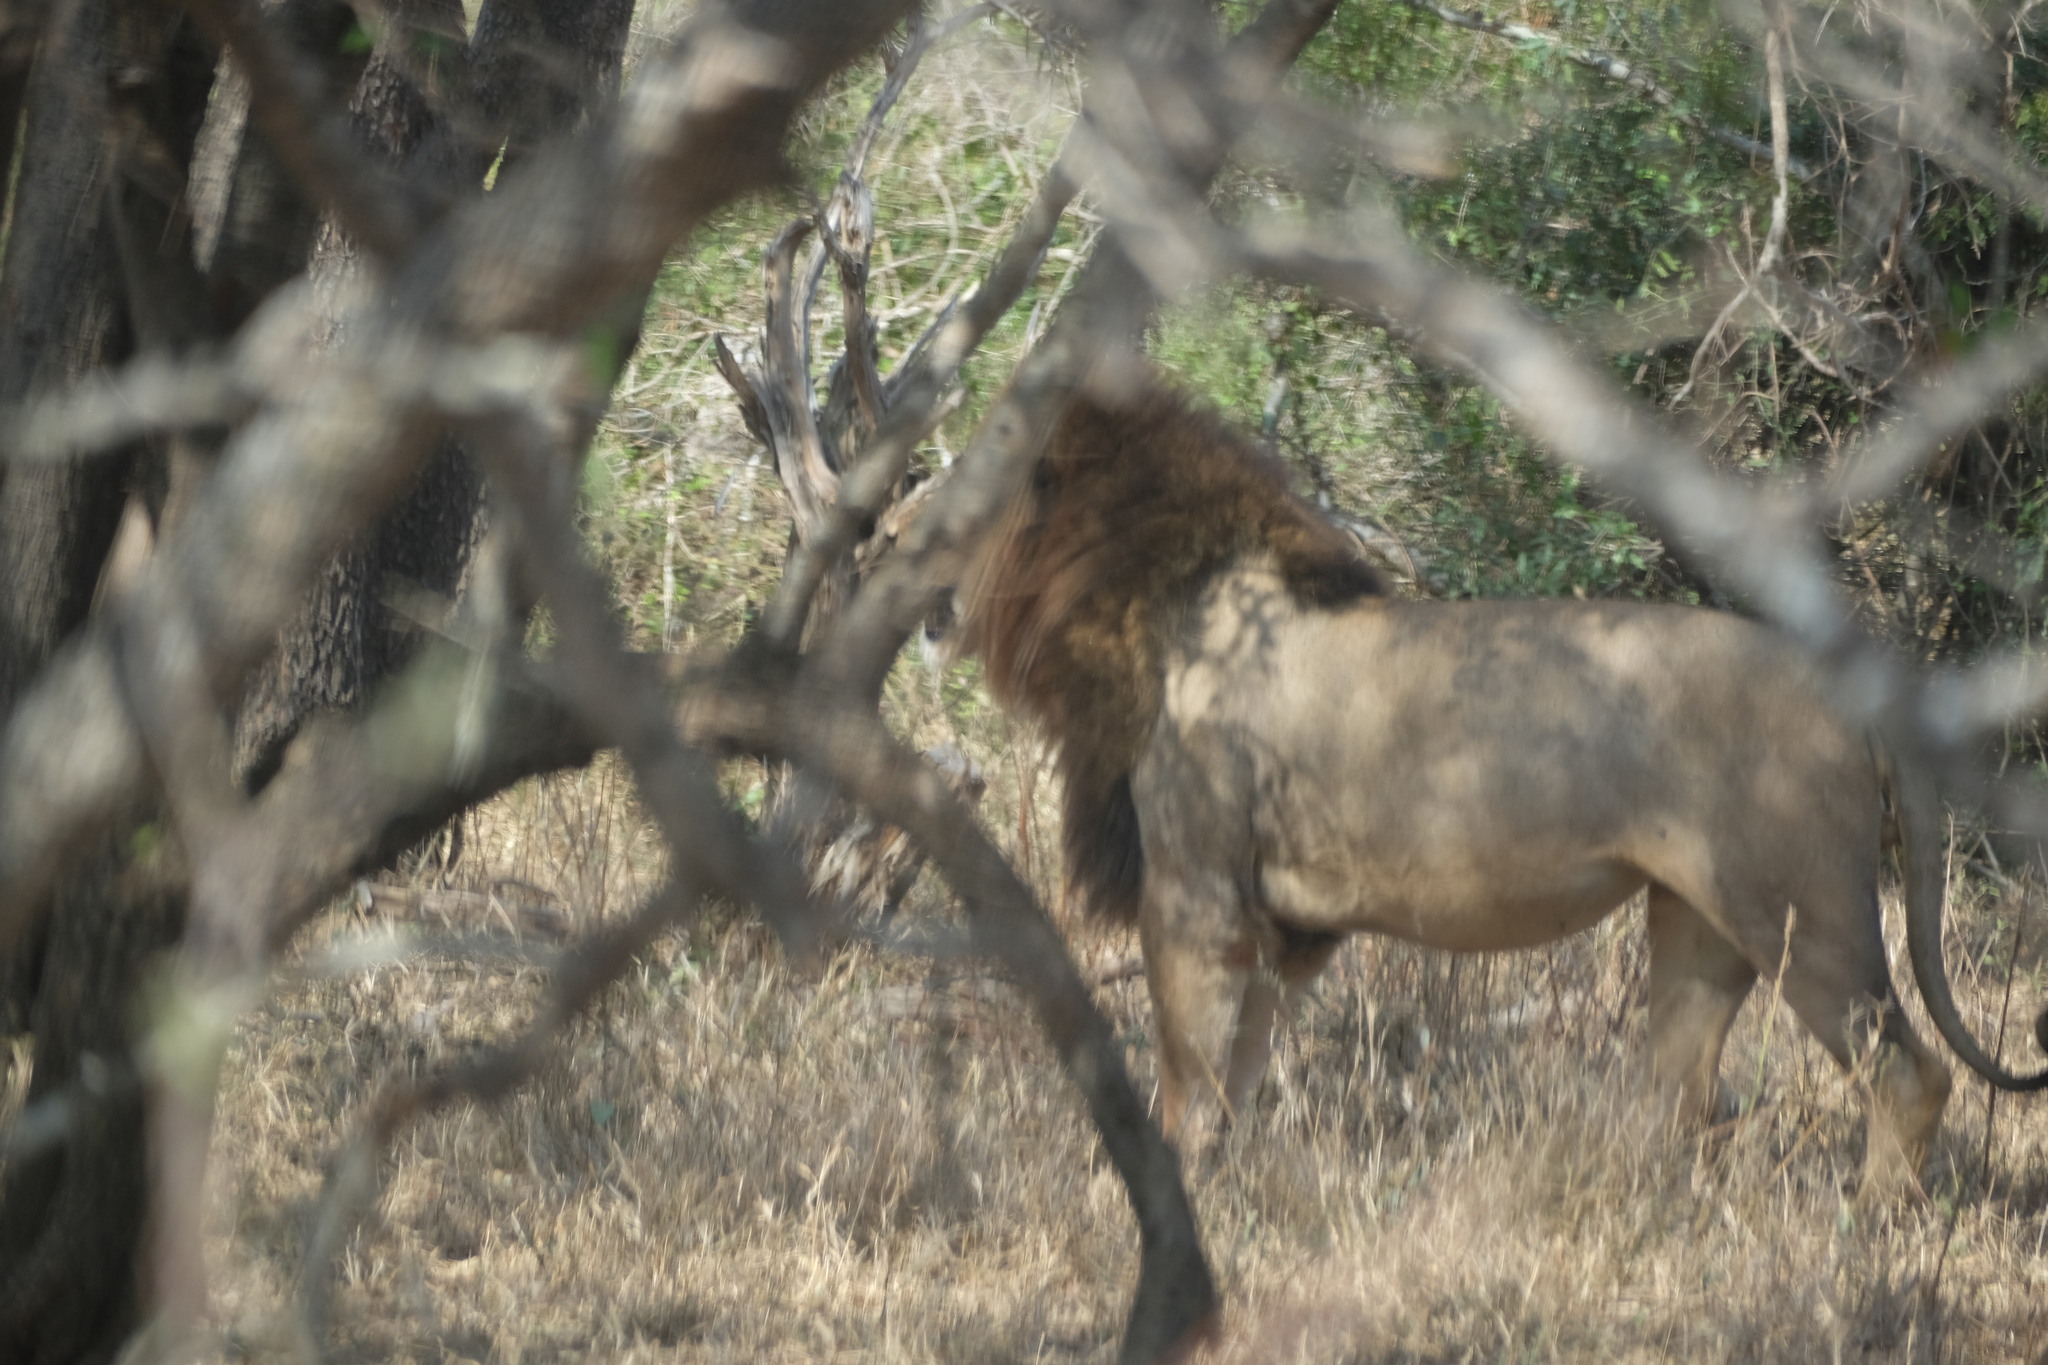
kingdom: Animalia
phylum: Chordata
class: Mammalia
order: Carnivora
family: Felidae
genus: Panthera
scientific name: Panthera leo
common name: Lion
